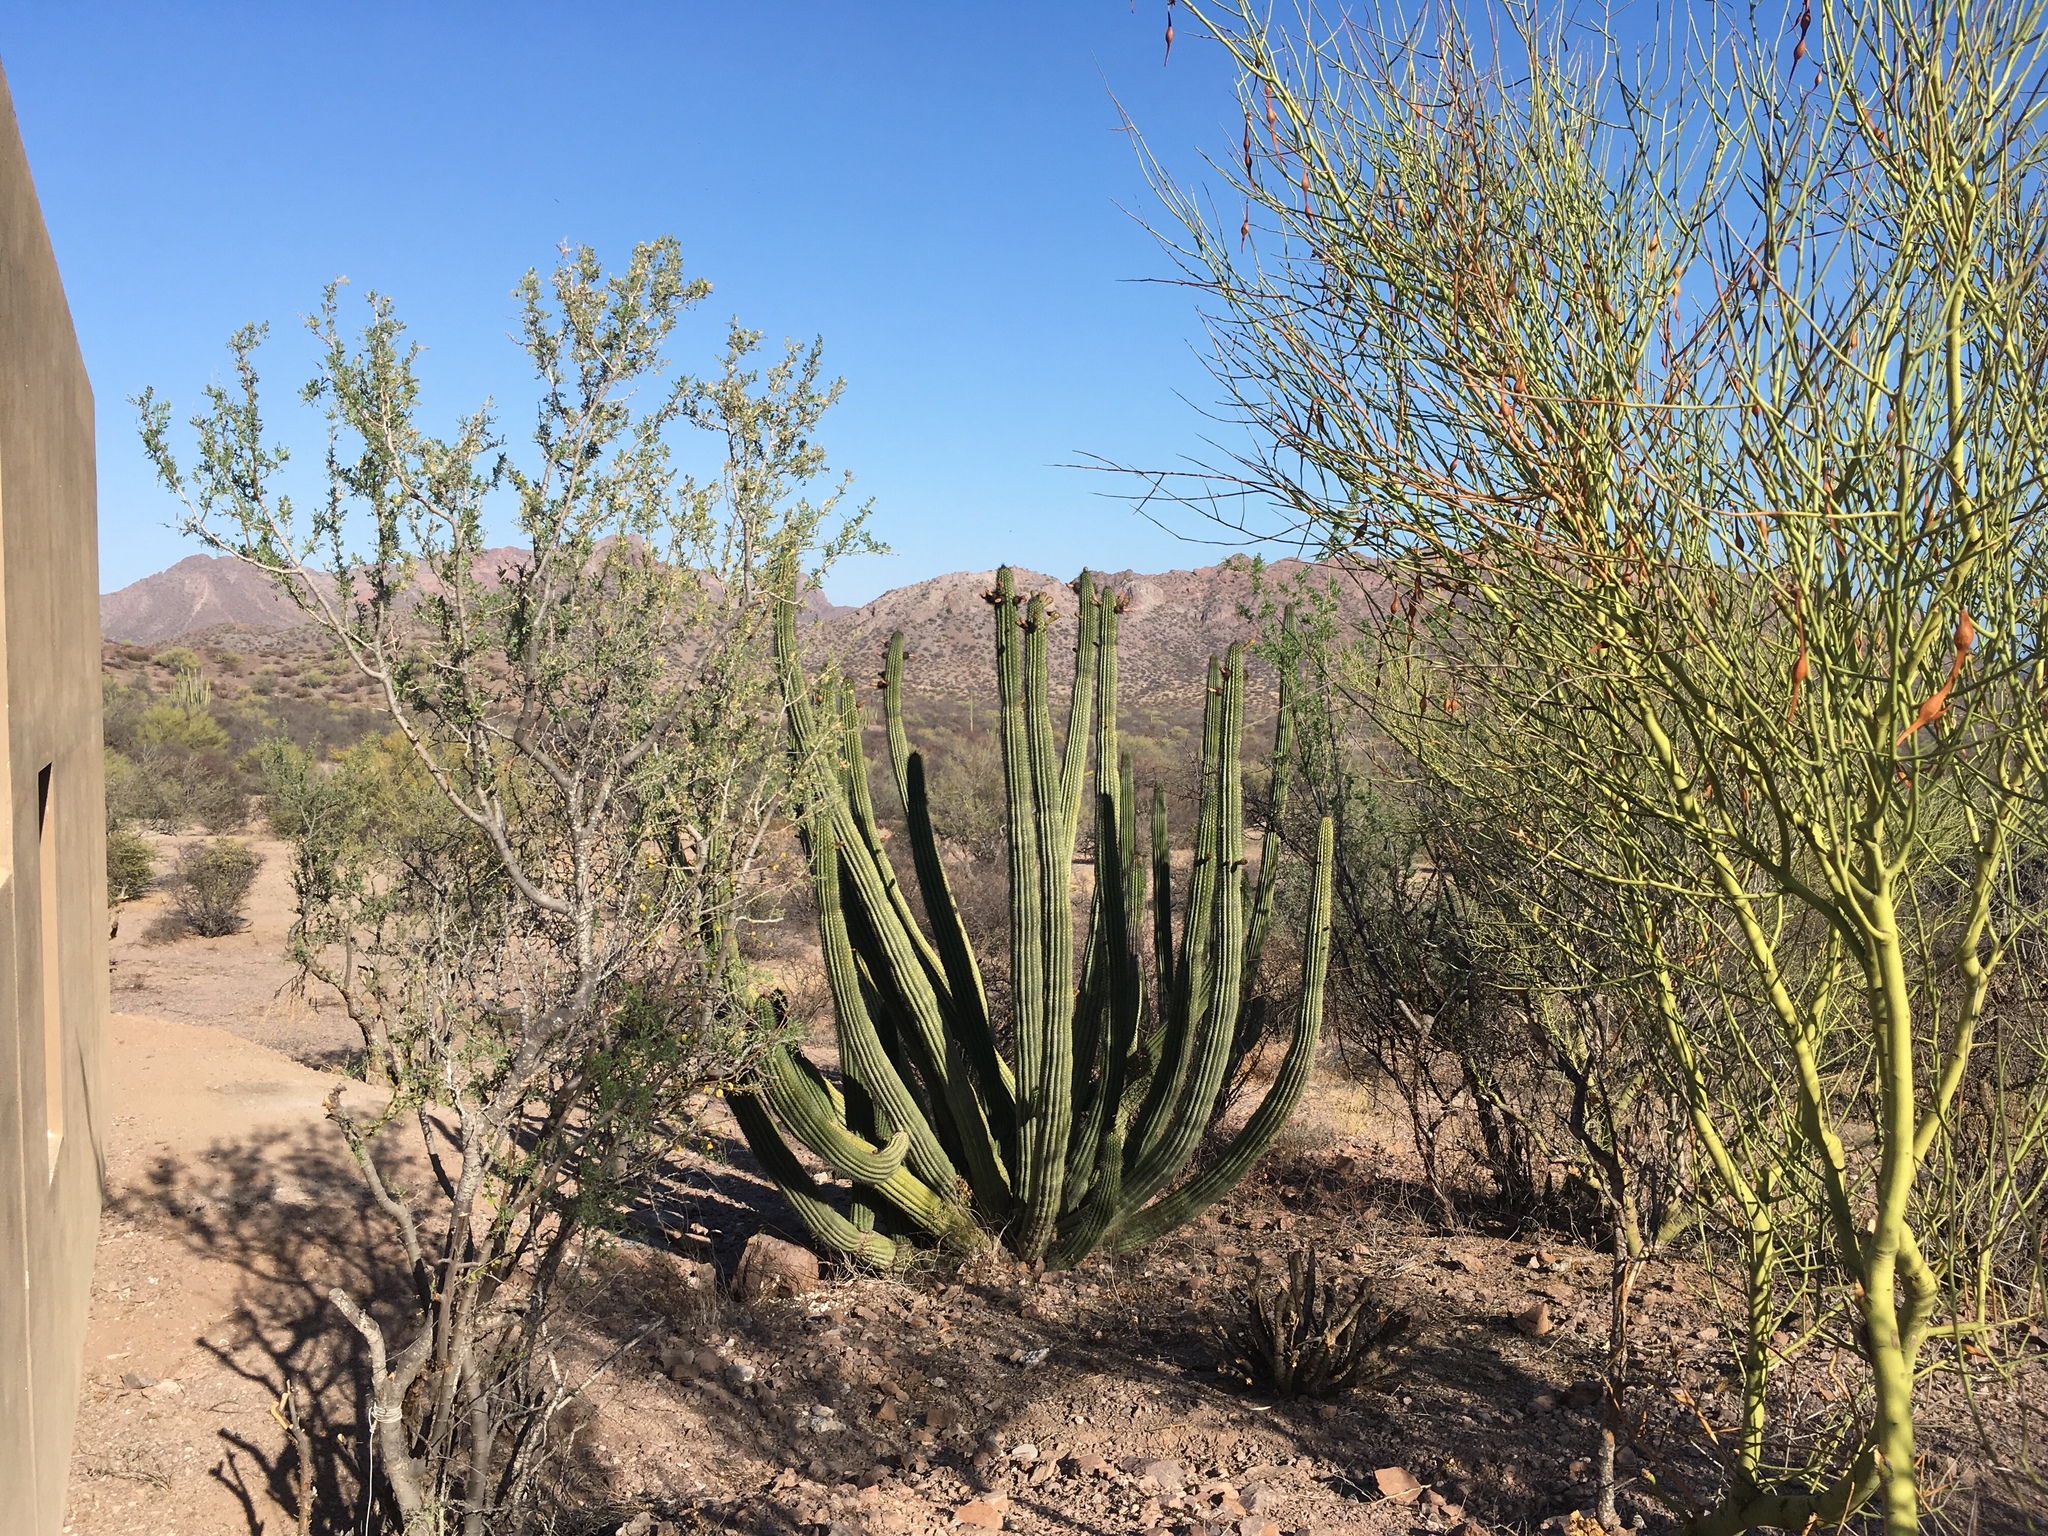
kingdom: Plantae
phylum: Tracheophyta
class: Magnoliopsida
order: Caryophyllales
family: Cactaceae
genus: Stenocereus
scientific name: Stenocereus thurberi
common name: Organ pipe cactus
